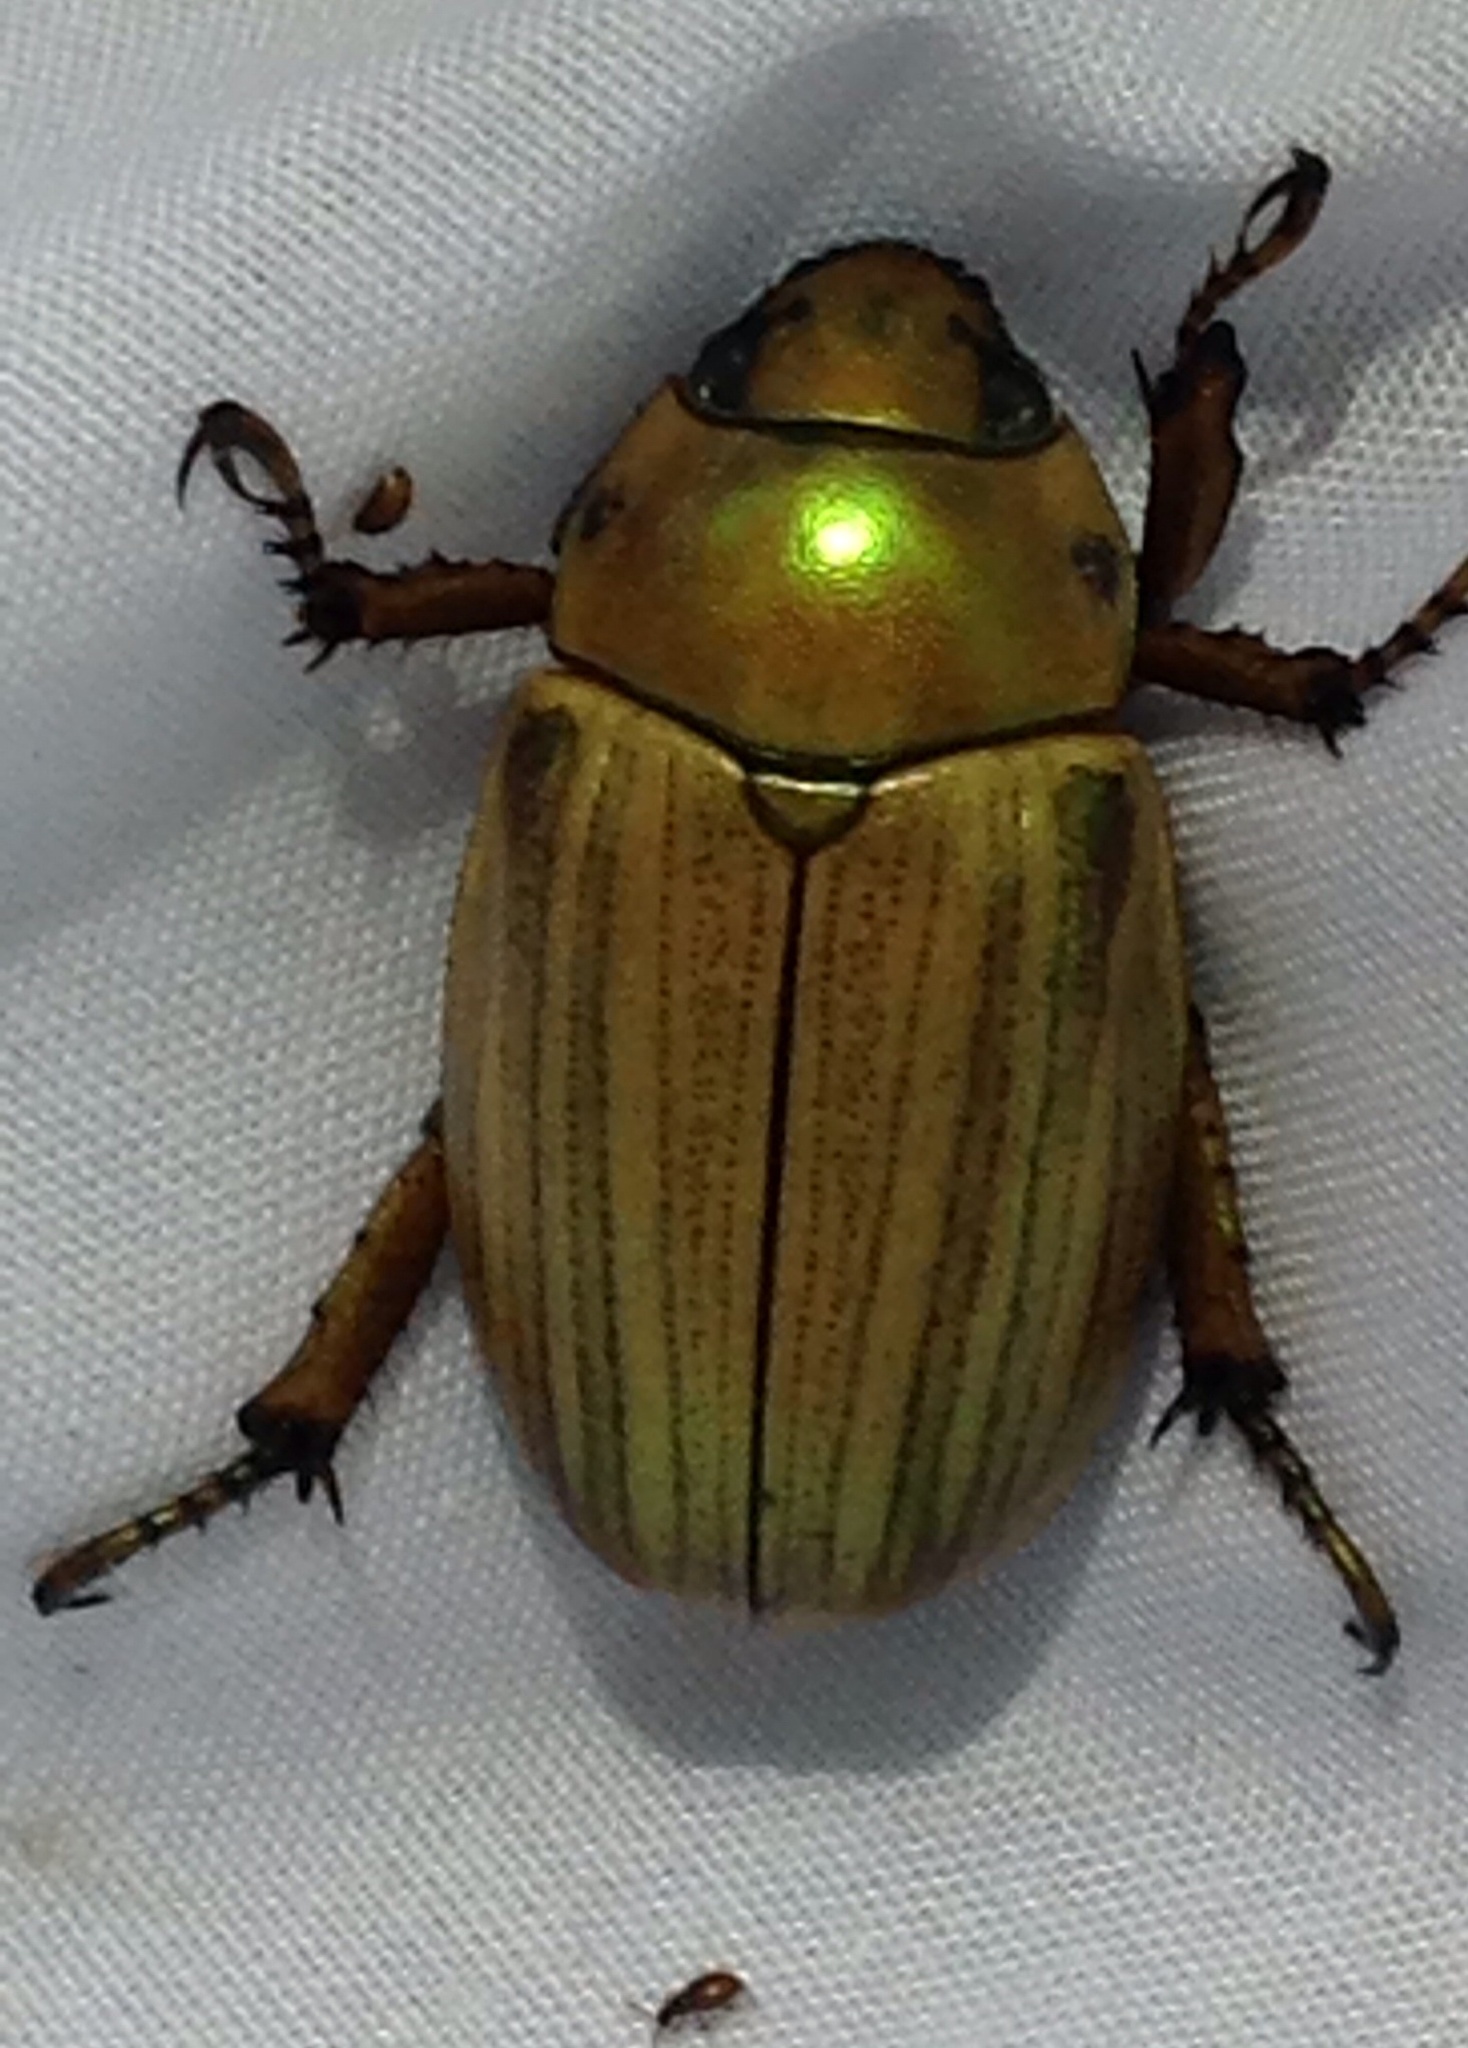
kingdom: Animalia
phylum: Arthropoda
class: Insecta
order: Coleoptera
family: Scarabaeidae
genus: Pelidnota
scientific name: Pelidnota virescens
